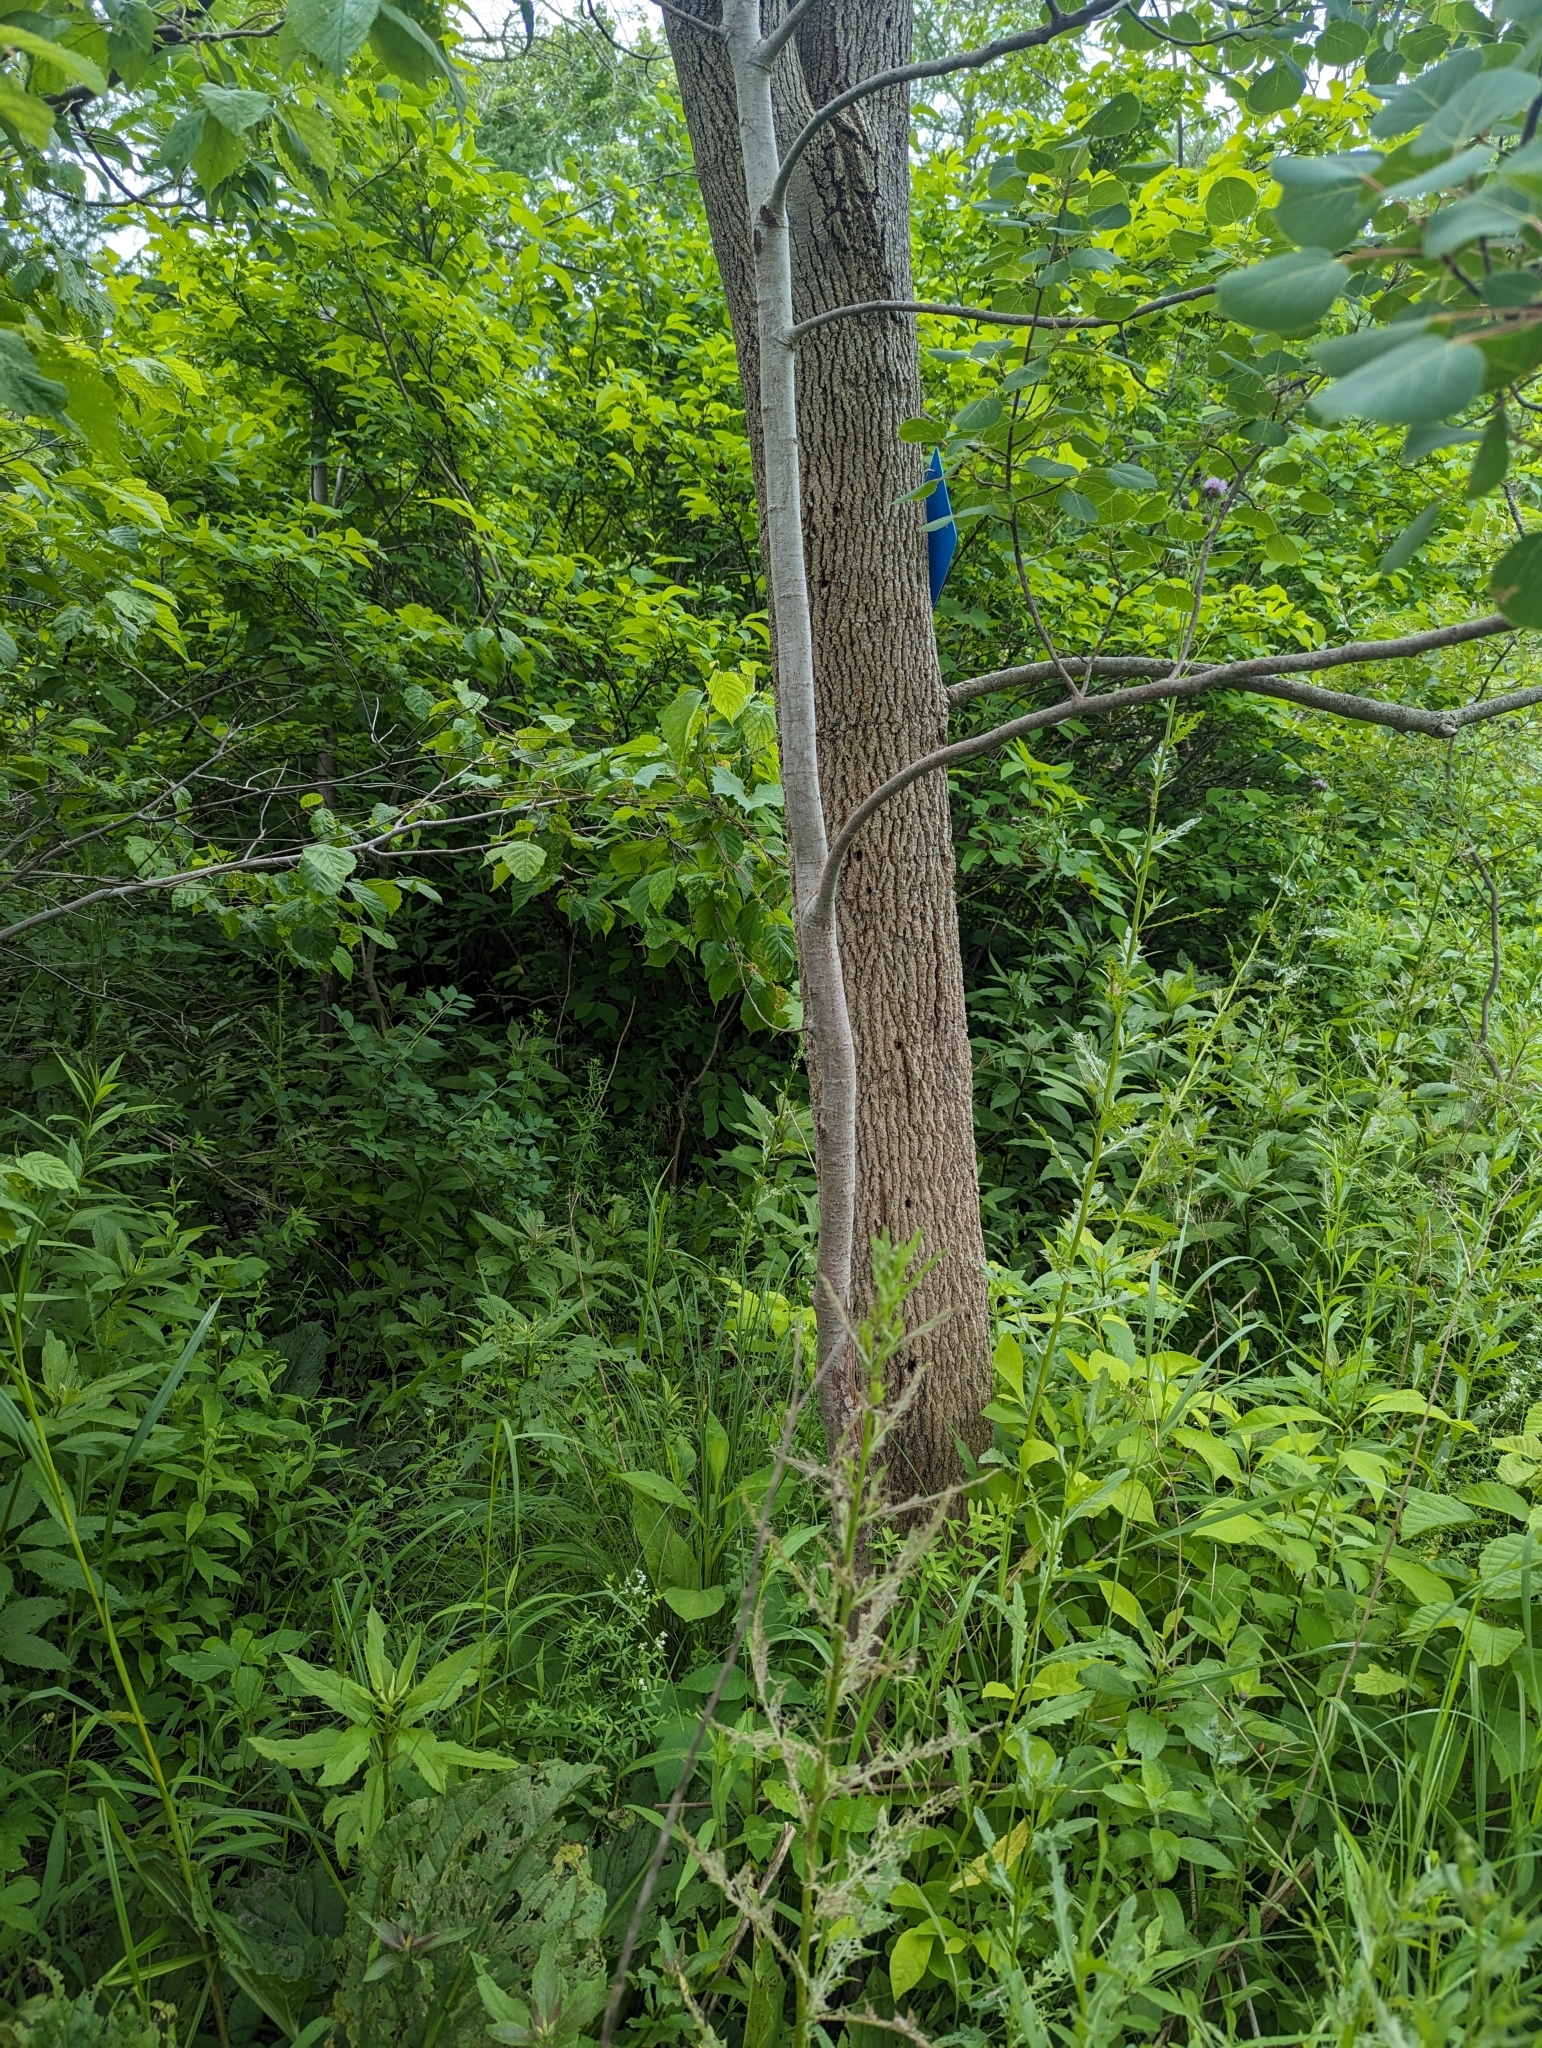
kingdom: Plantae
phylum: Tracheophyta
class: Magnoliopsida
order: Malpighiales
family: Salicaceae
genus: Populus
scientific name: Populus tremuloides
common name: Quaking aspen
